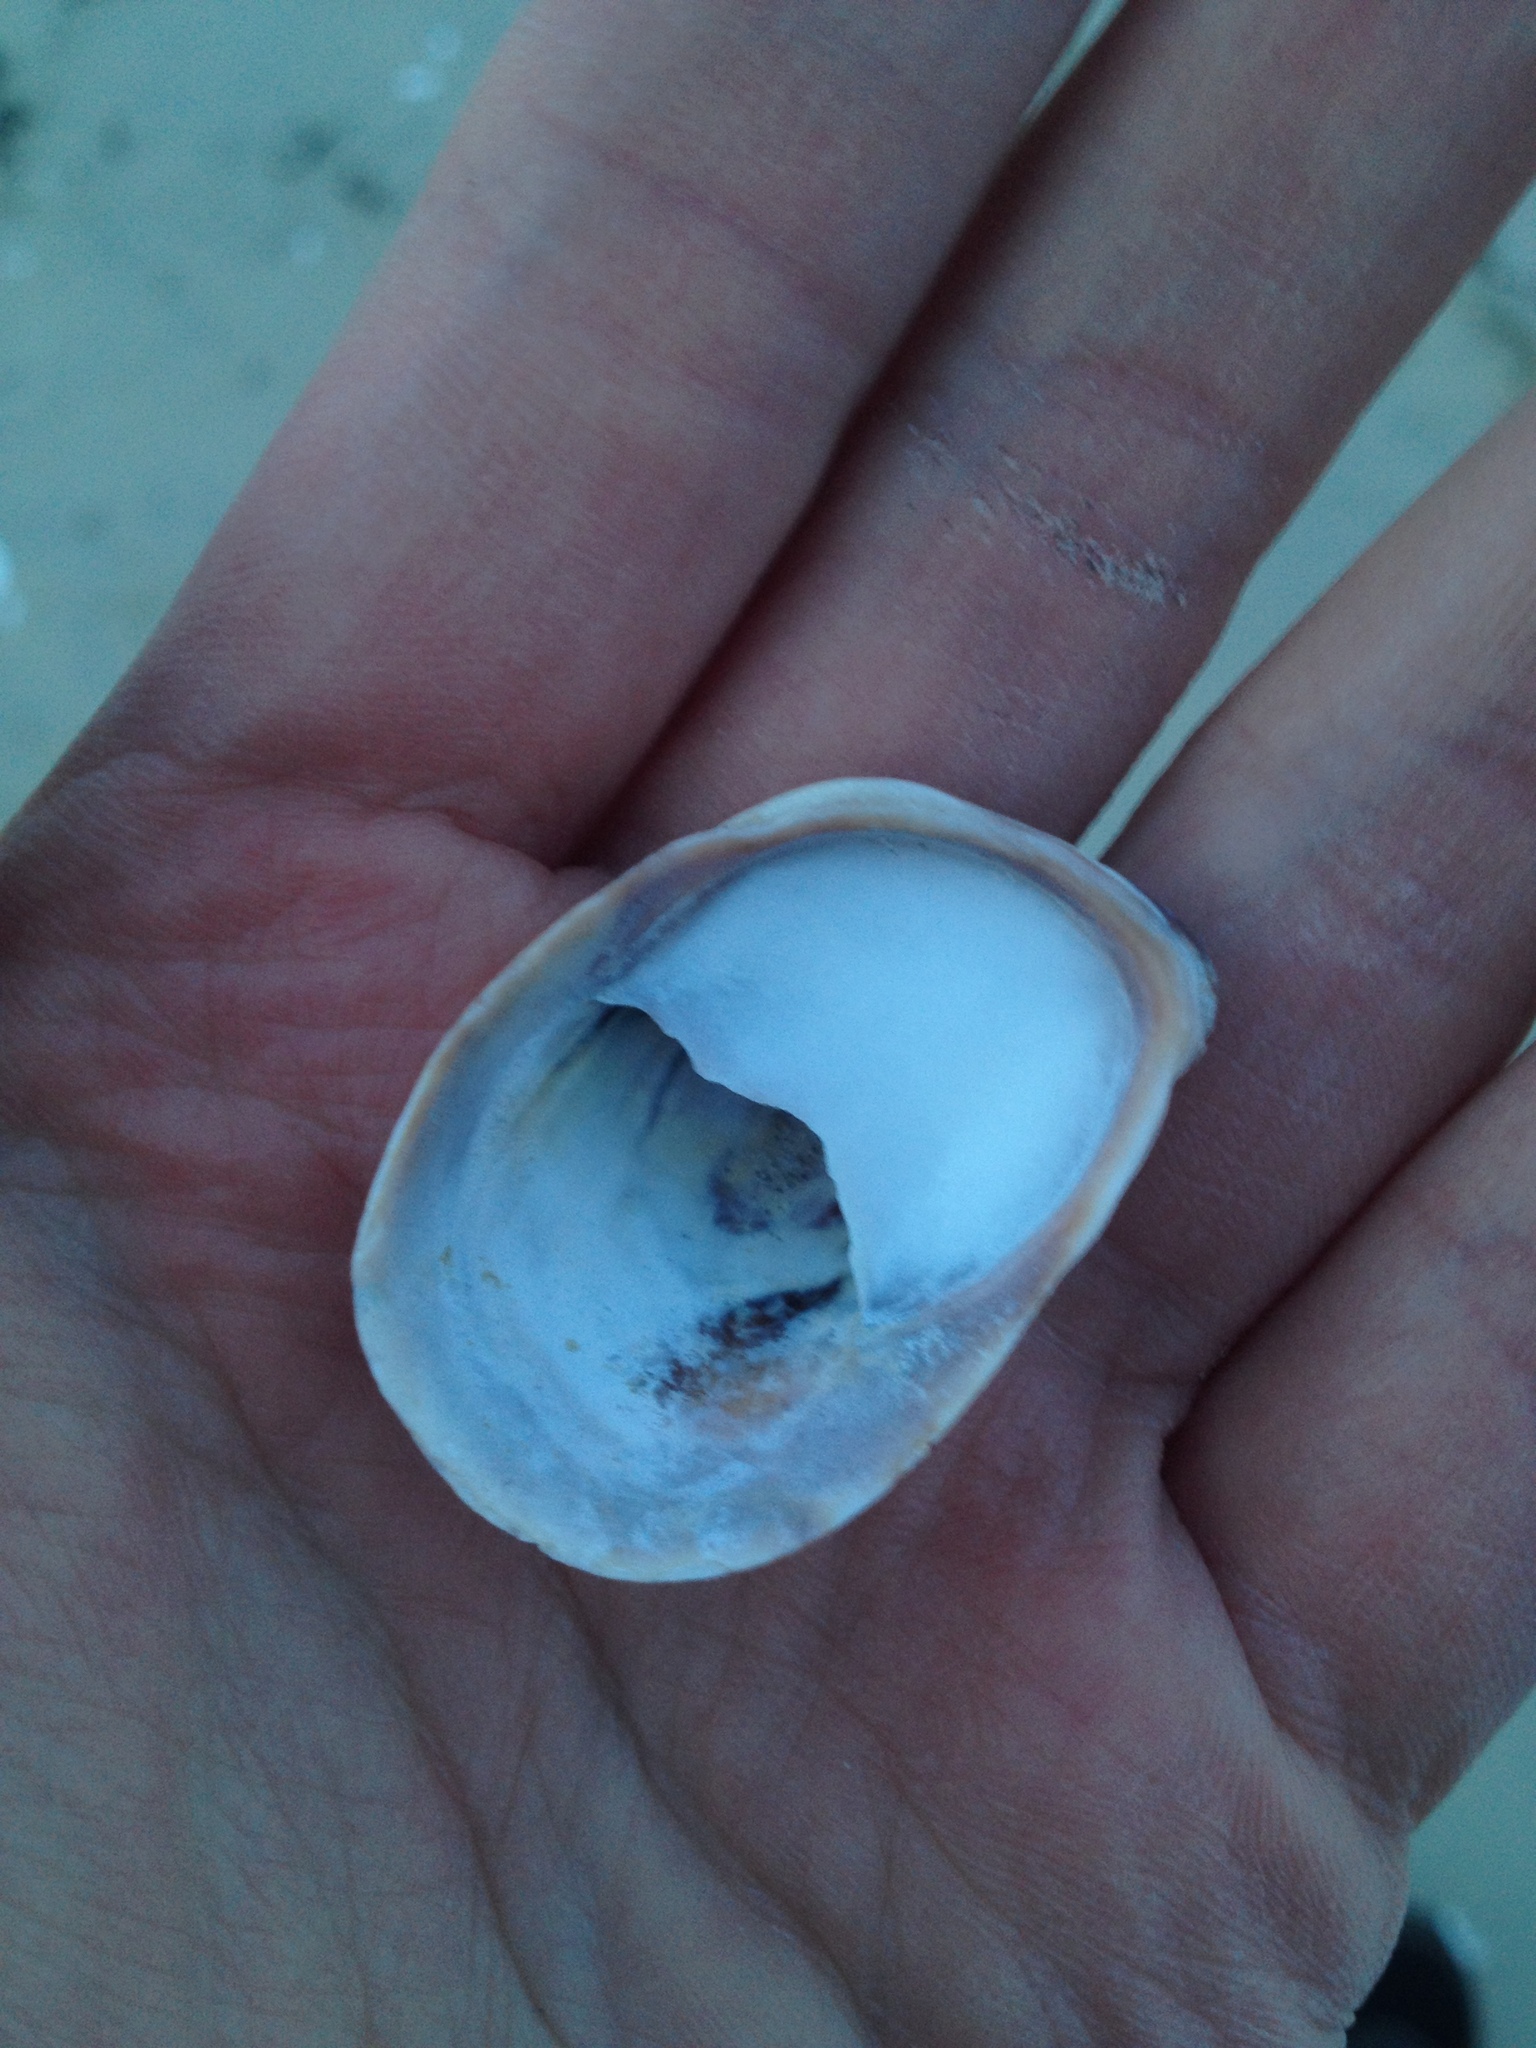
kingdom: Animalia
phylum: Mollusca
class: Gastropoda
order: Littorinimorpha
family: Calyptraeidae
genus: Crepidula
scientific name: Crepidula fornicata
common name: Slipper limpet
